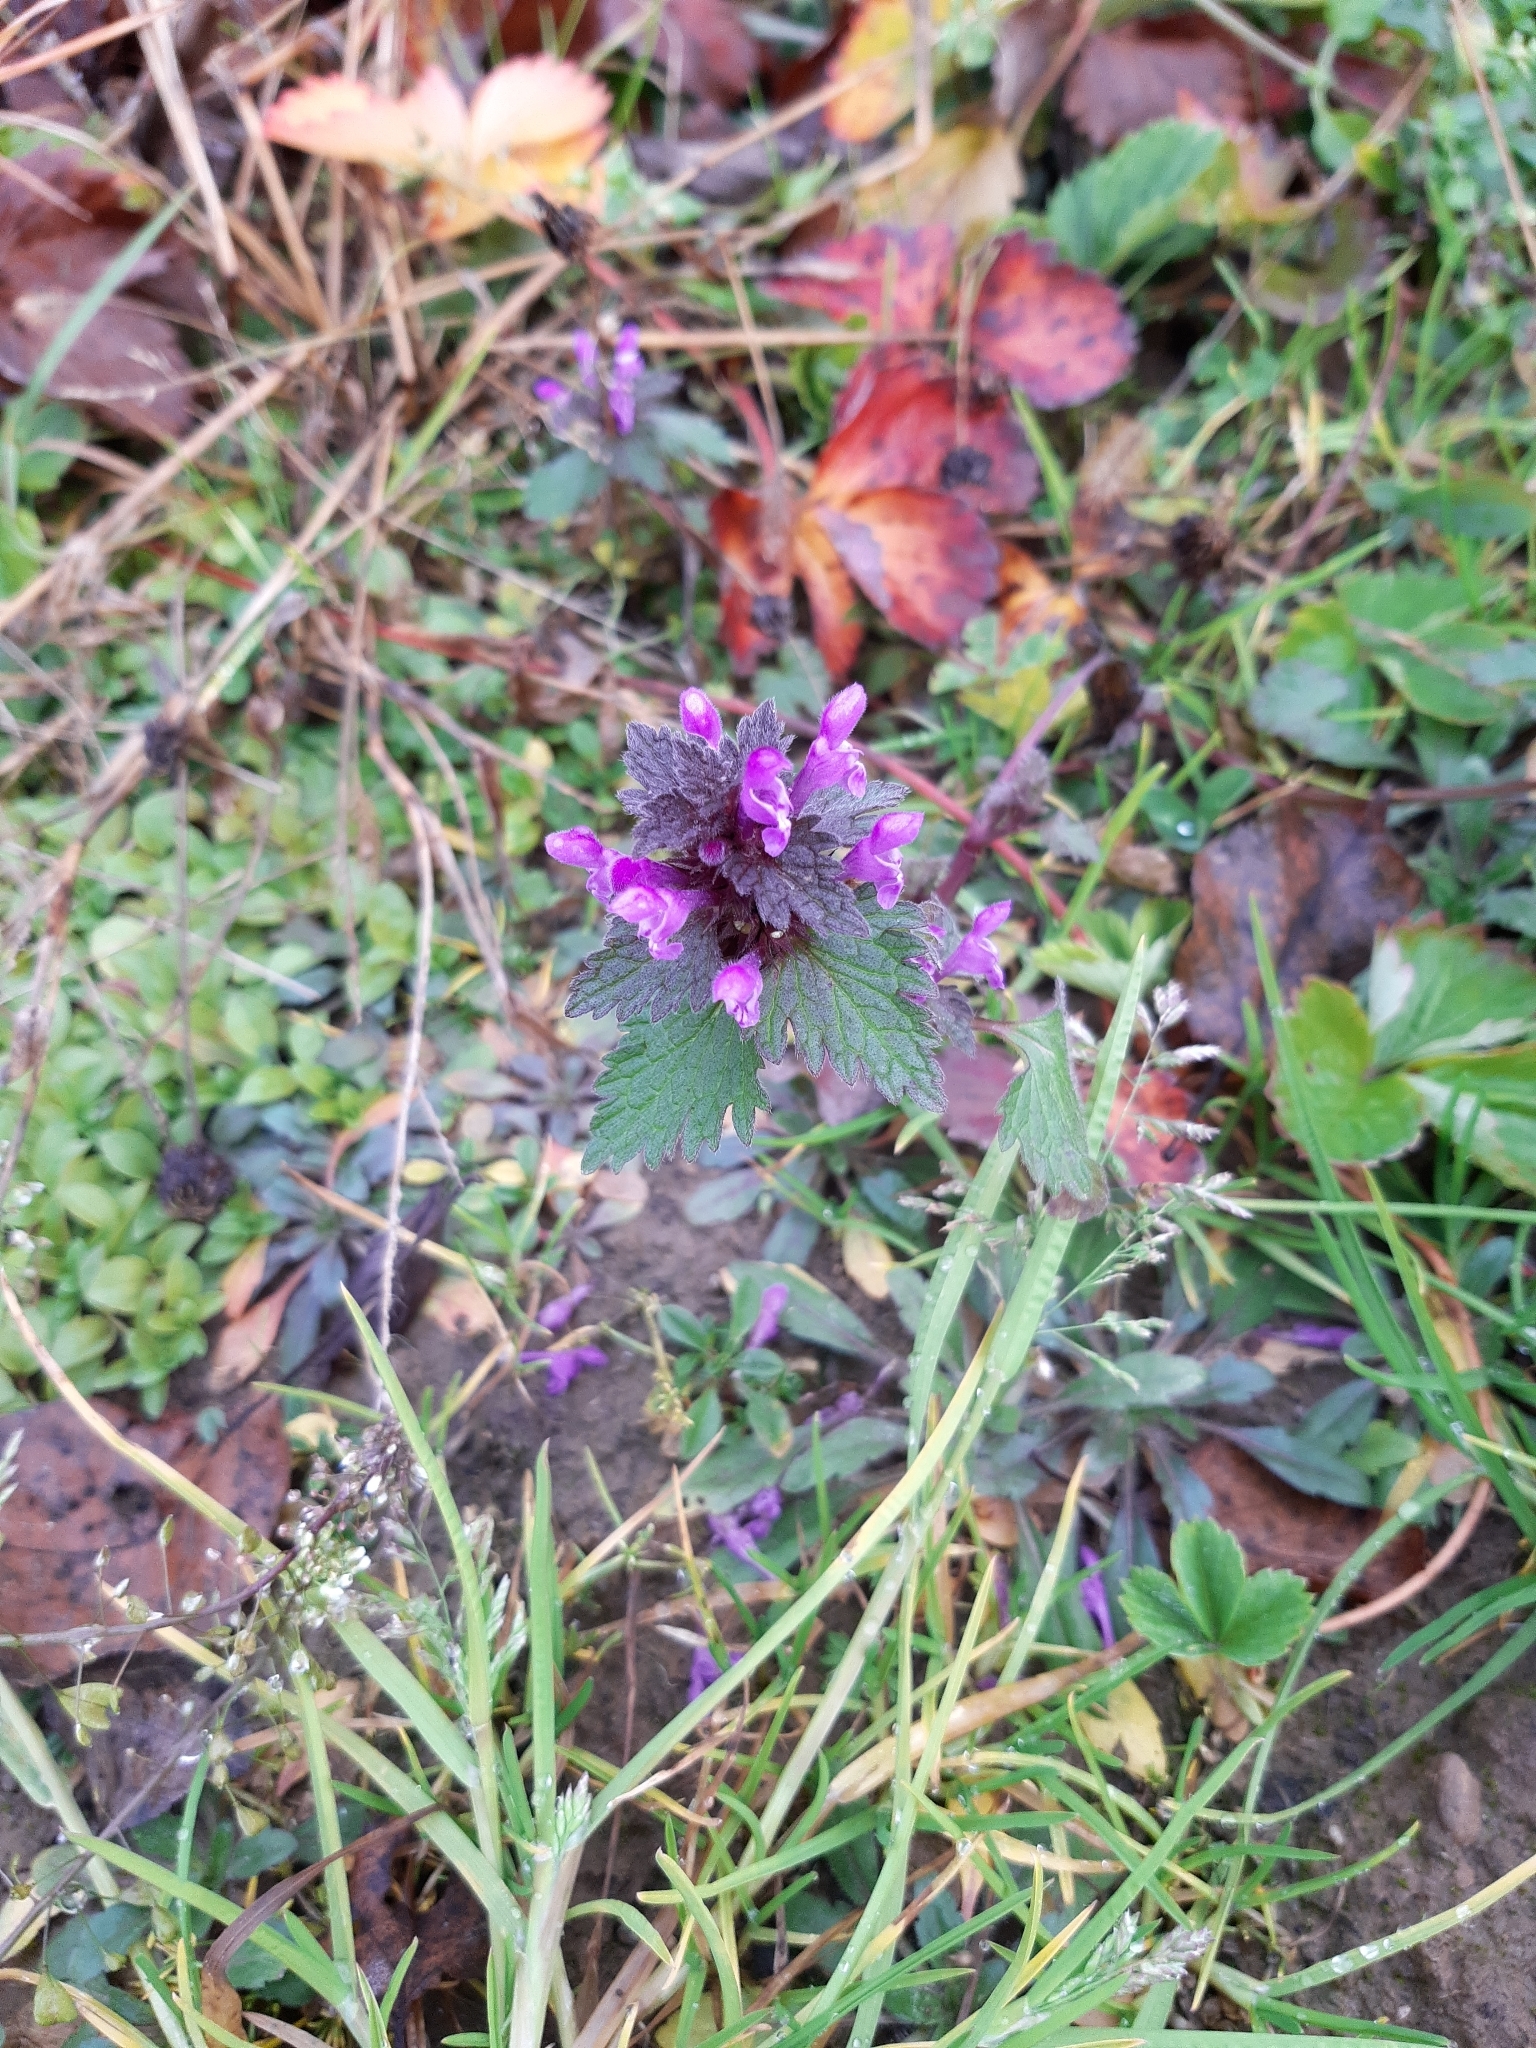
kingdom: Plantae
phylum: Tracheophyta
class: Magnoliopsida
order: Lamiales
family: Lamiaceae
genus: Lamium
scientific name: Lamium hybridum
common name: Cut-leaved dead-nettle
